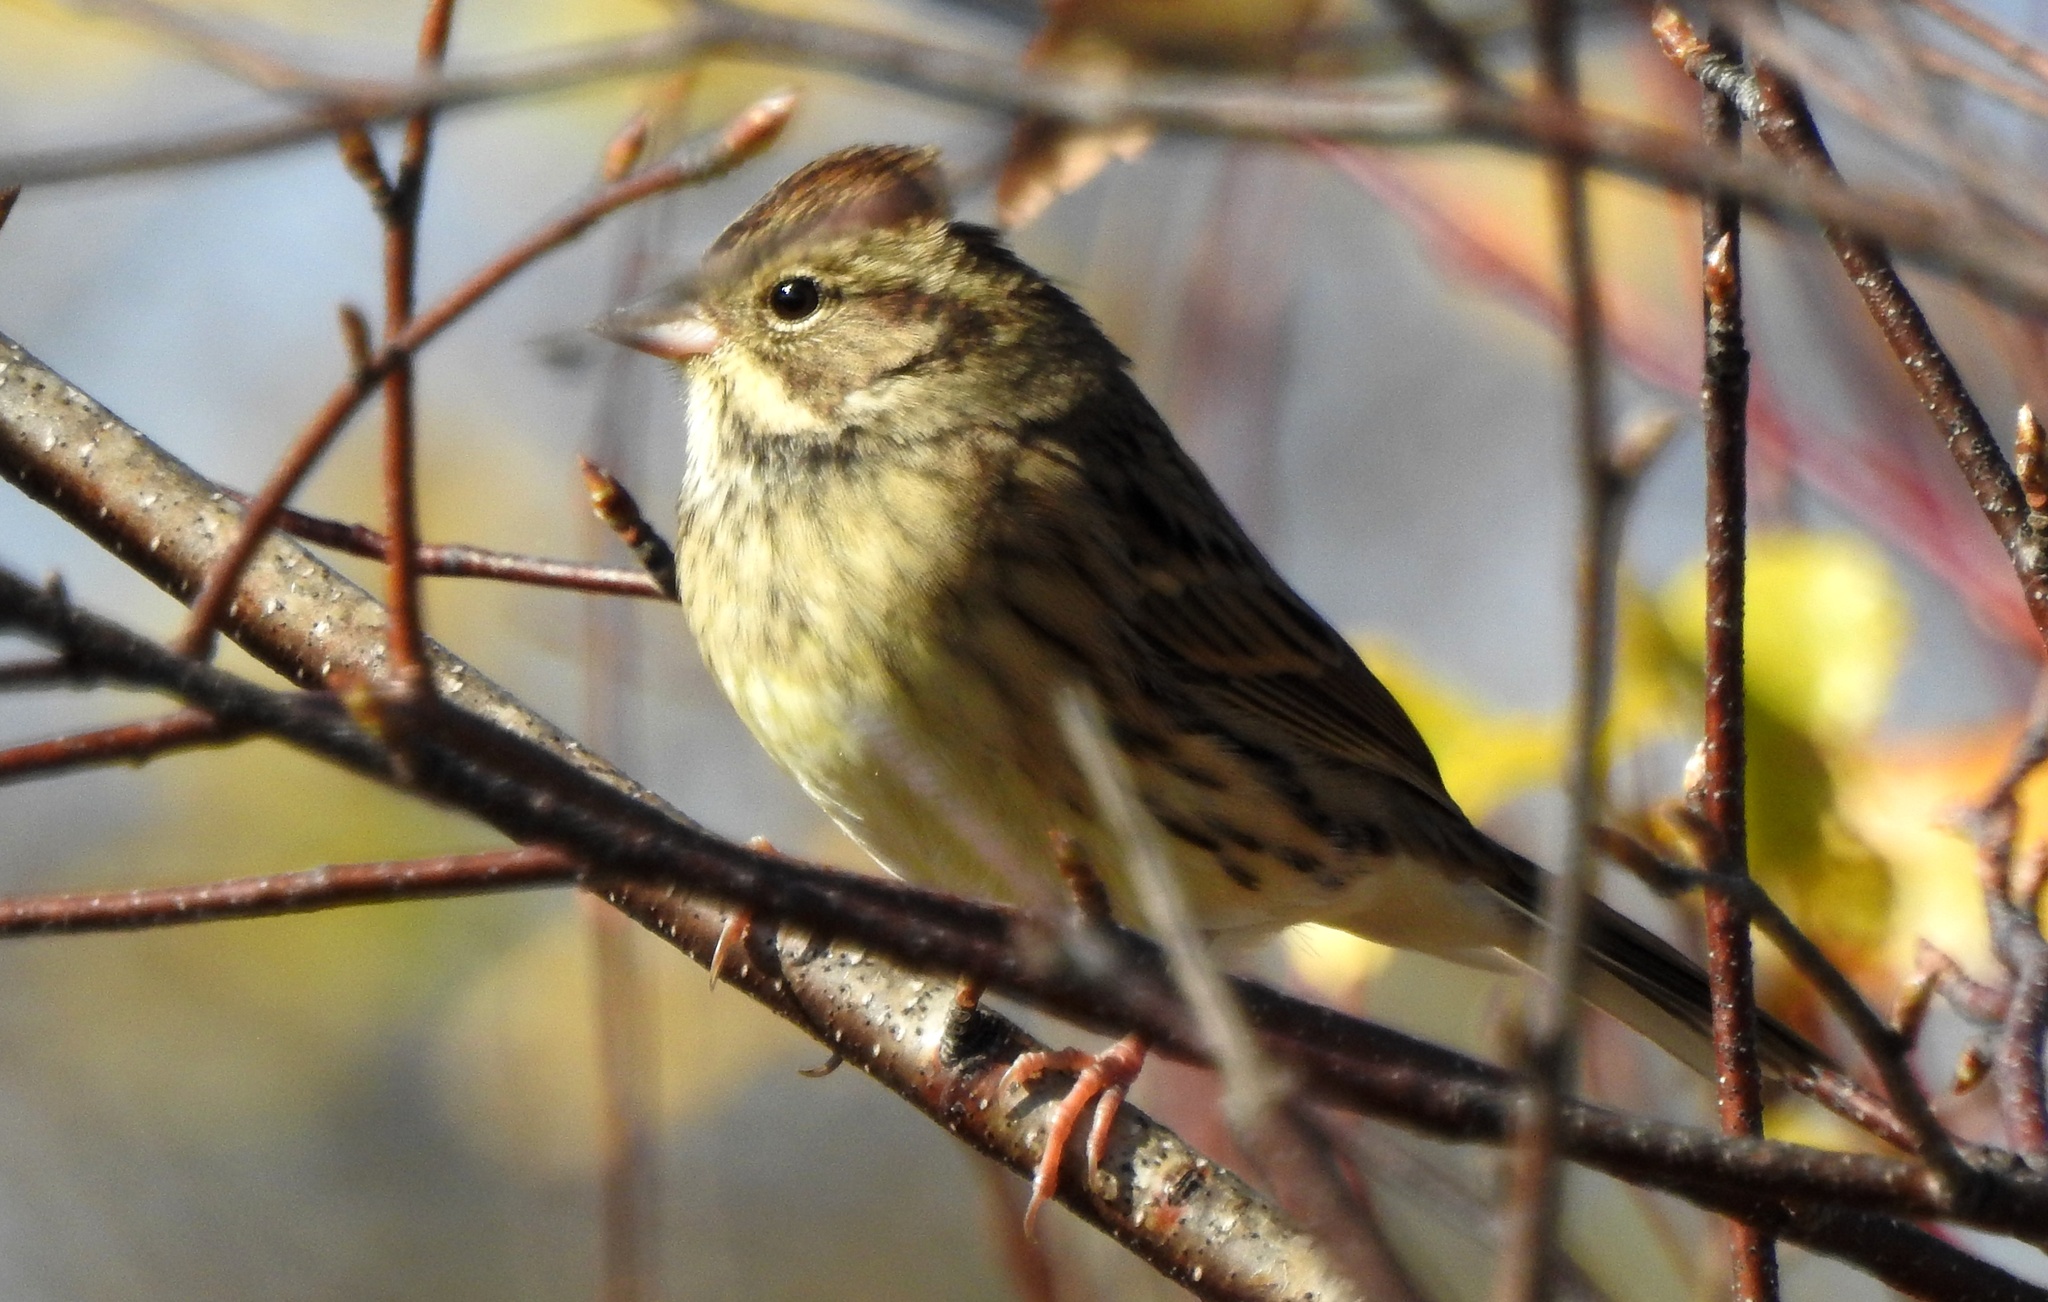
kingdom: Animalia
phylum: Chordata
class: Aves
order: Passeriformes
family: Emberizidae
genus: Emberiza
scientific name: Emberiza spodocephala
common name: Black-faced bunting
